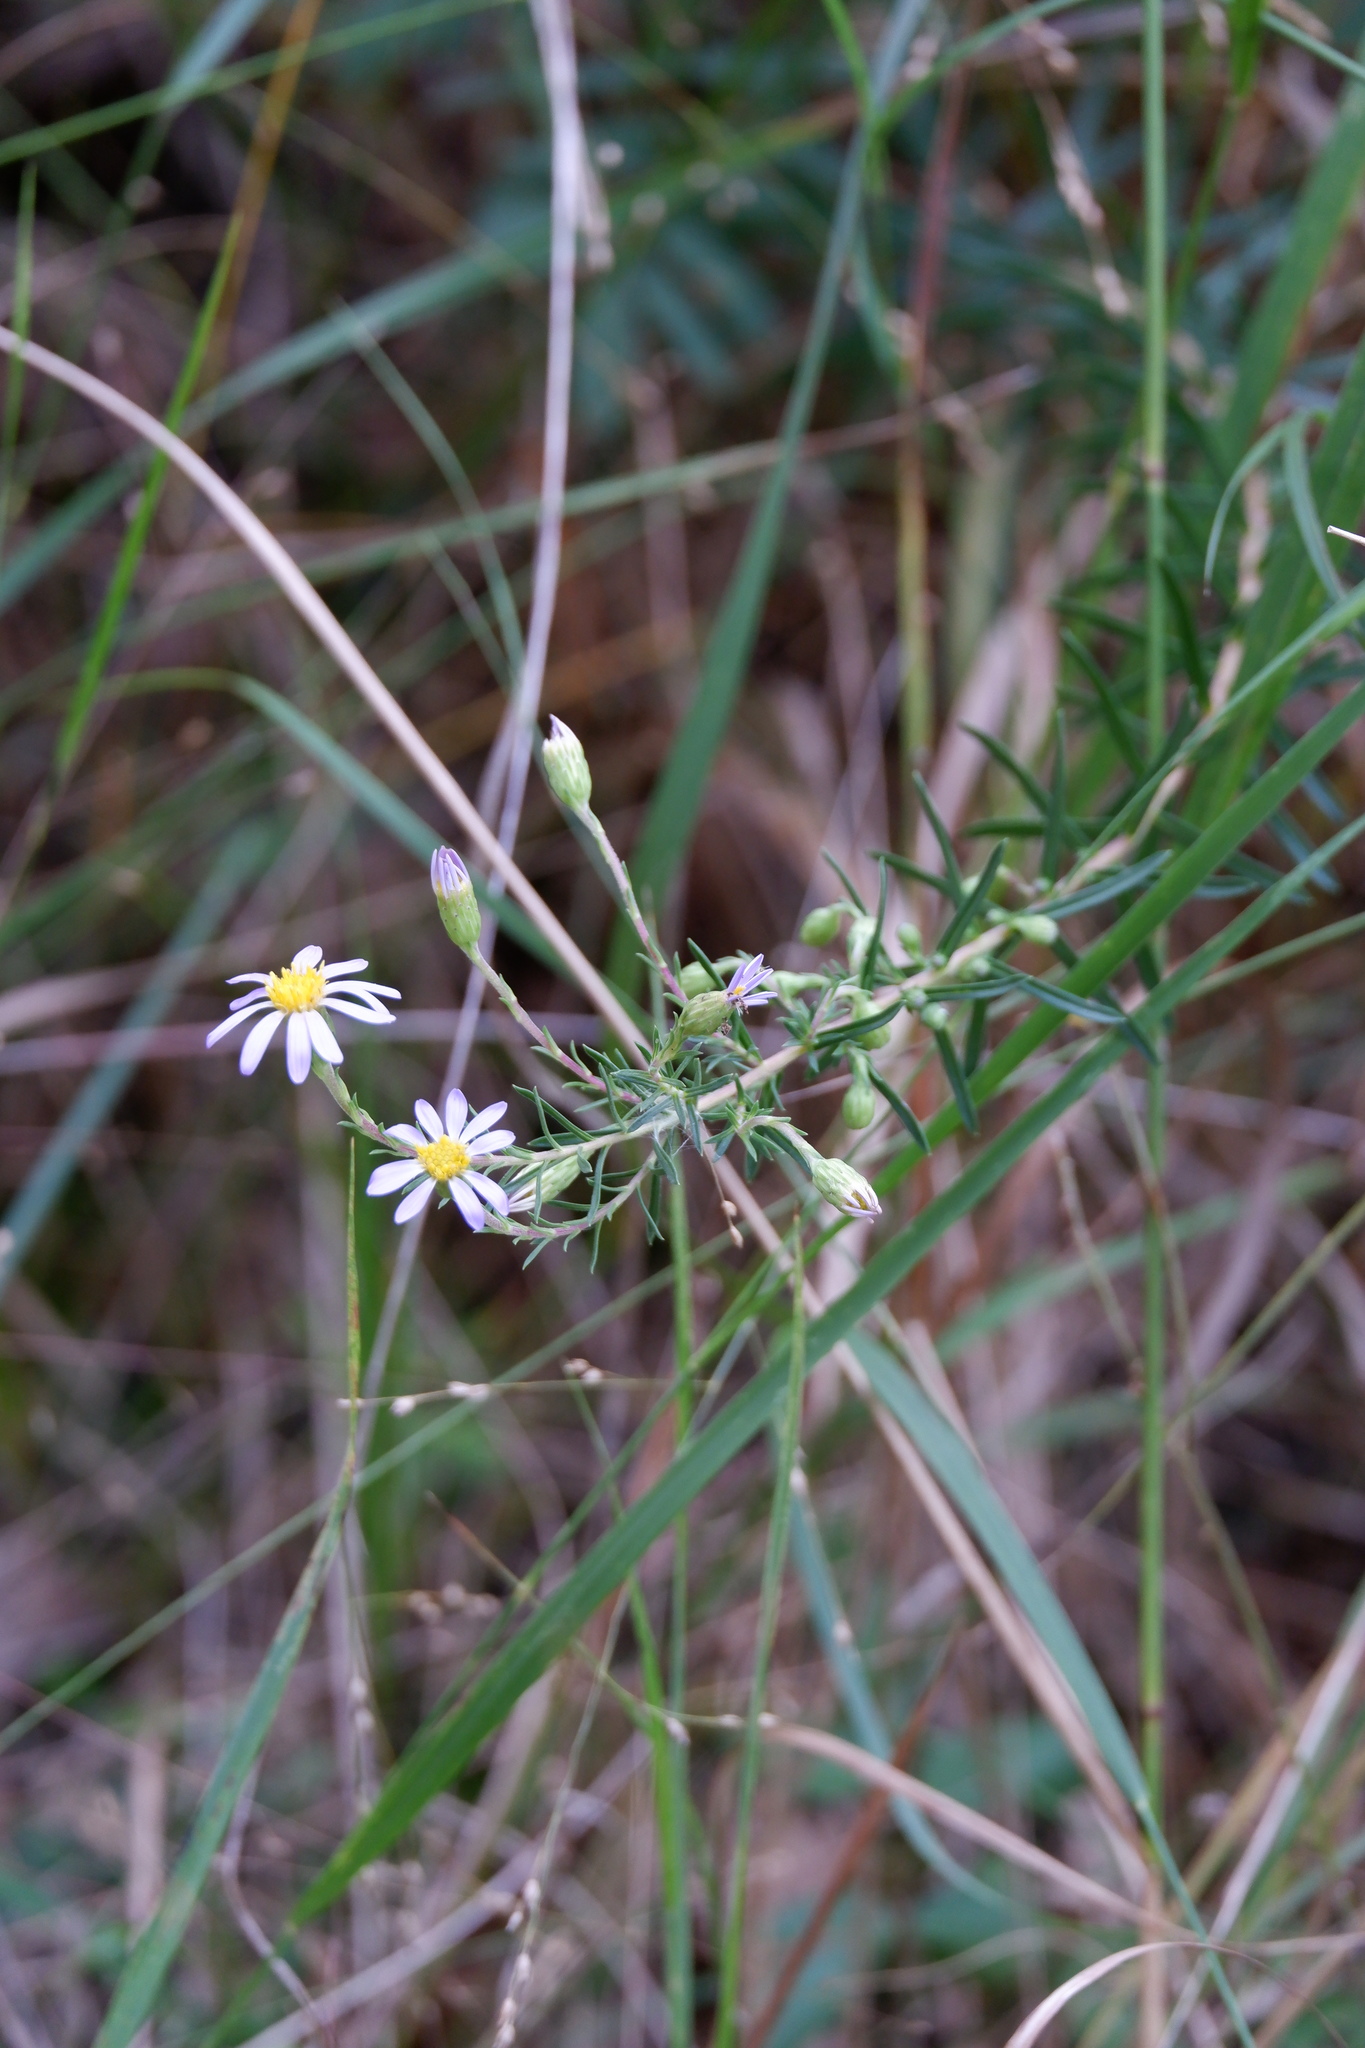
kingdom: Plantae
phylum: Tracheophyta
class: Magnoliopsida
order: Asterales
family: Asteraceae
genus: Ionactis
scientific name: Ionactis linariifolia
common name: Flax-leaf aster
